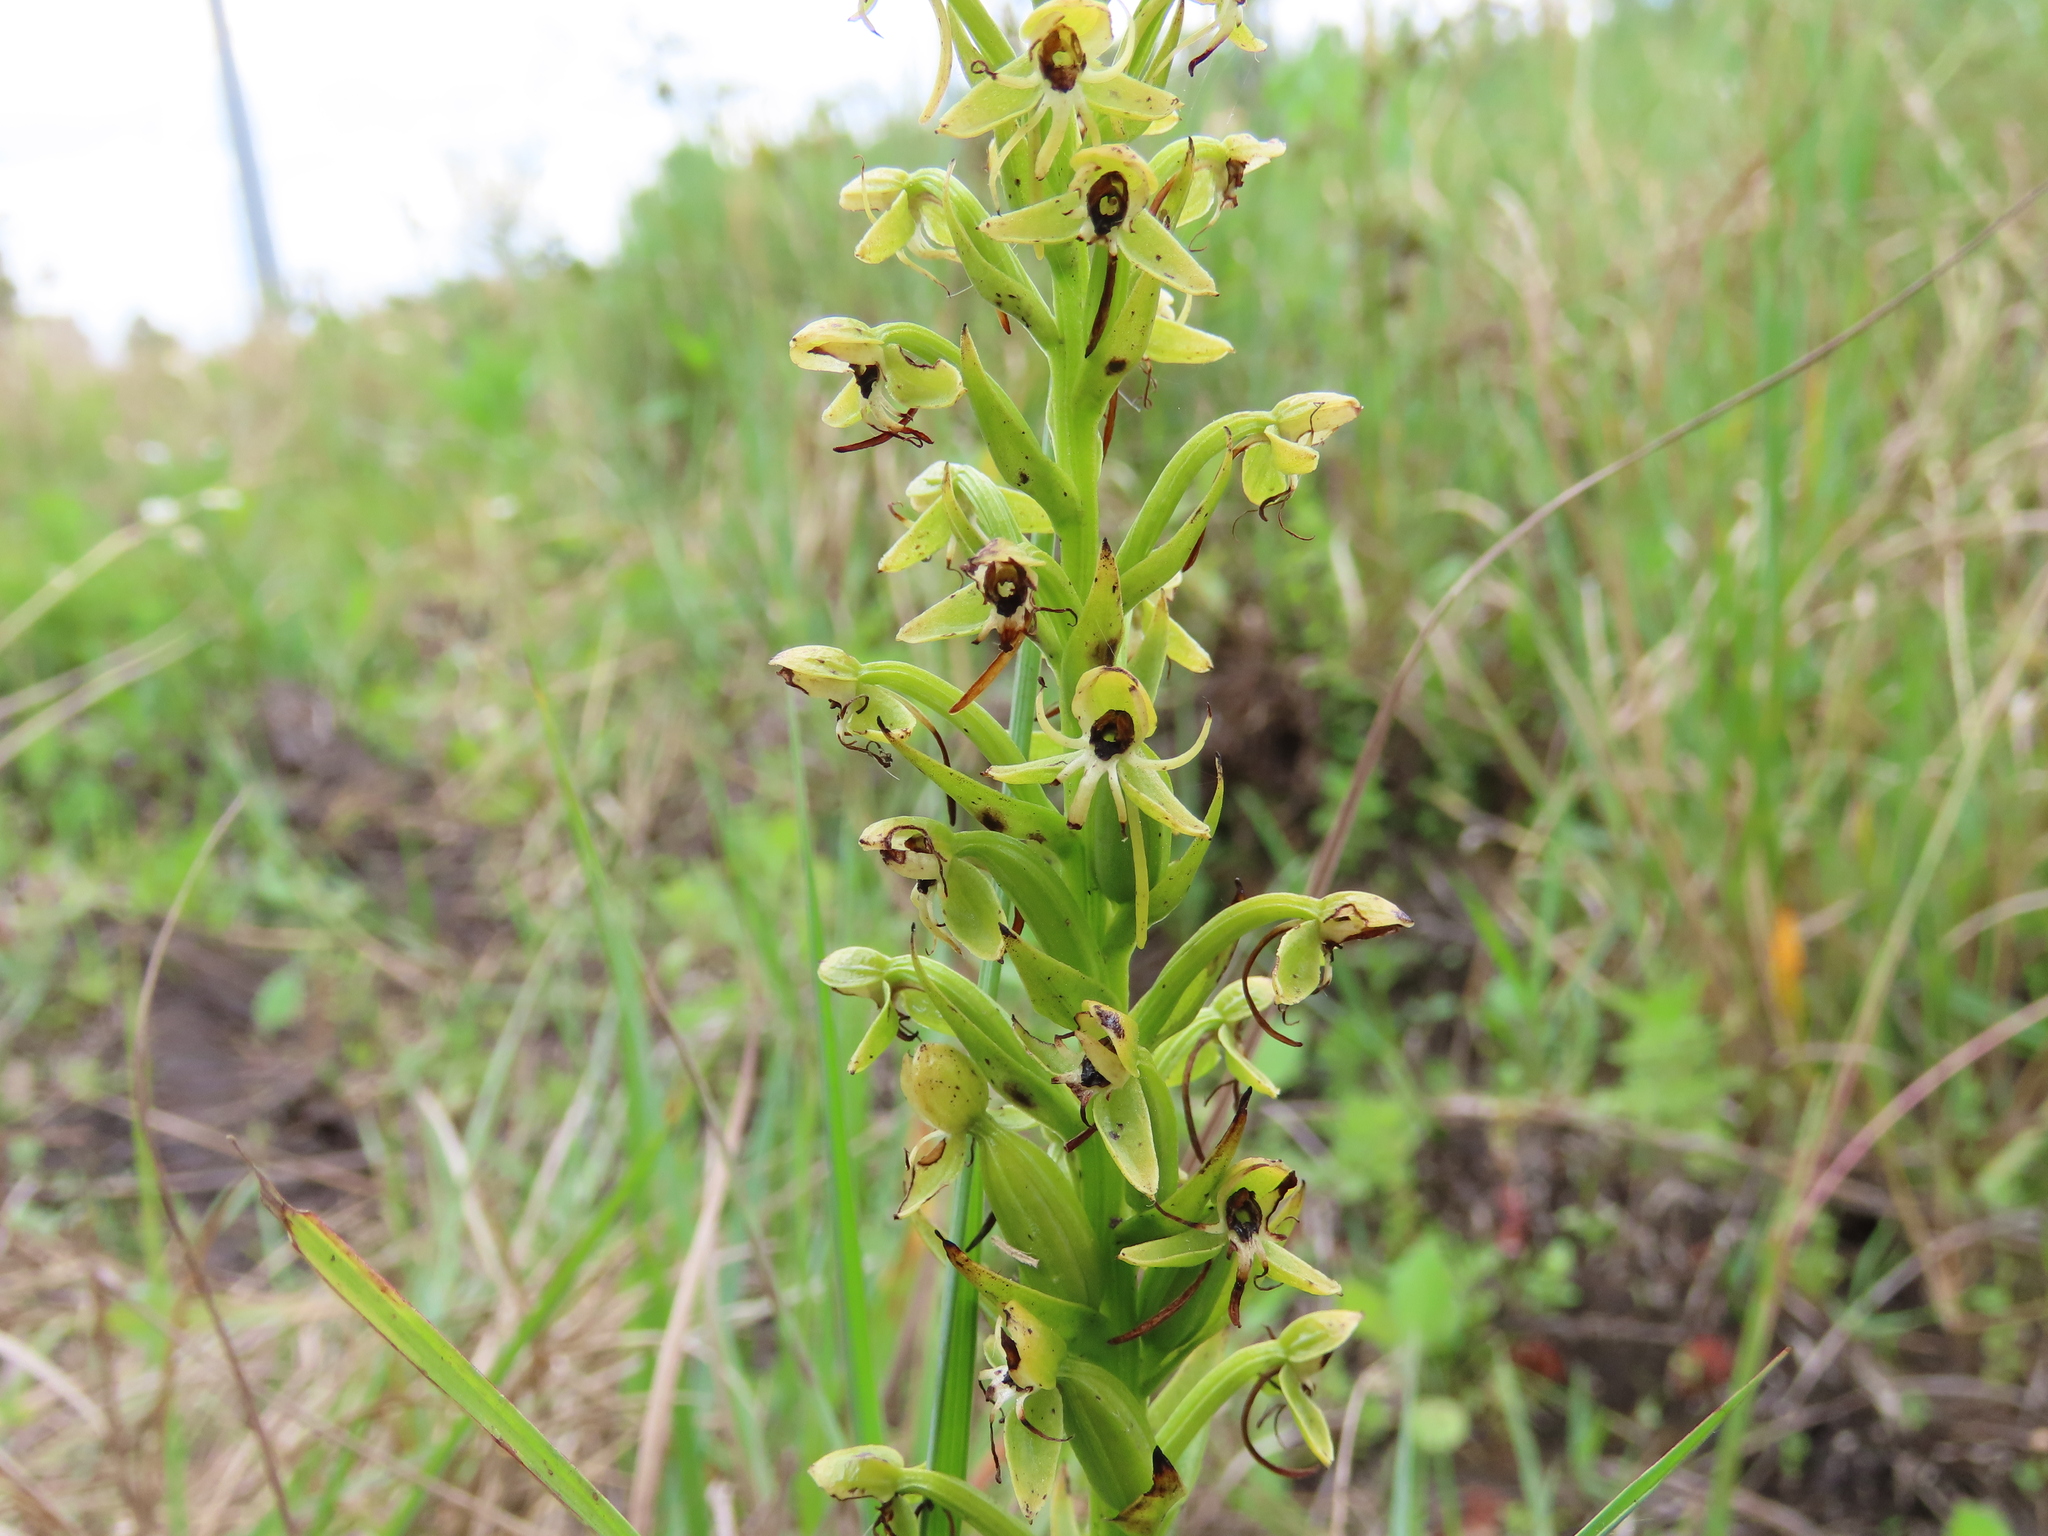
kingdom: Plantae
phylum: Tracheophyta
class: Liliopsida
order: Asparagales
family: Orchidaceae
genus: Habenaria
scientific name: Habenaria repens
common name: Water orchid
